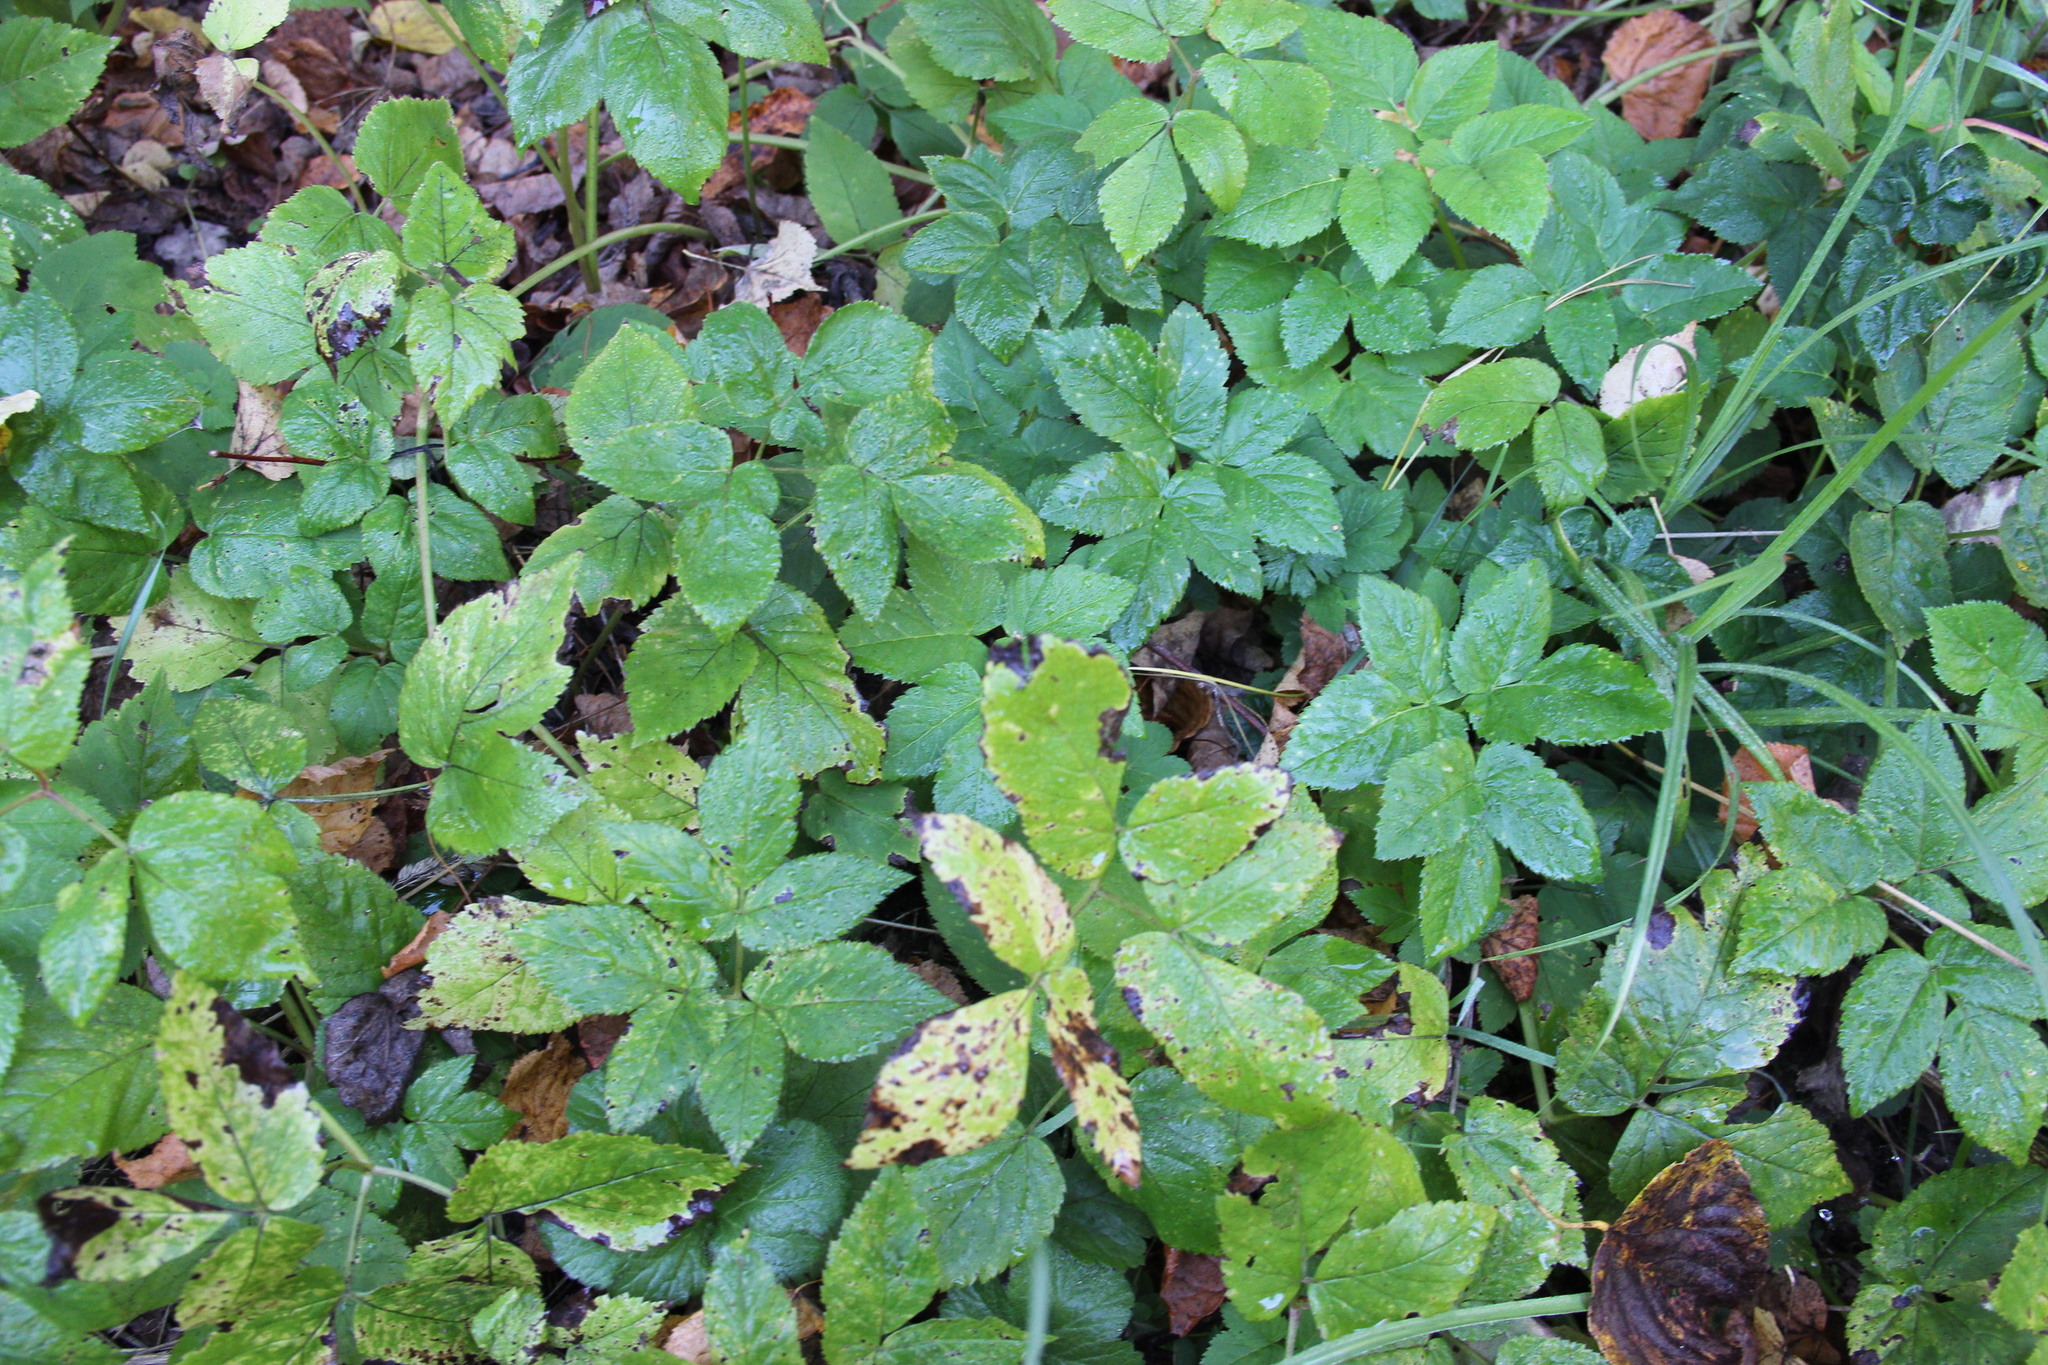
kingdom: Plantae
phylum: Tracheophyta
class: Magnoliopsida
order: Apiales
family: Apiaceae
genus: Aegopodium
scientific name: Aegopodium podagraria
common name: Ground-elder
